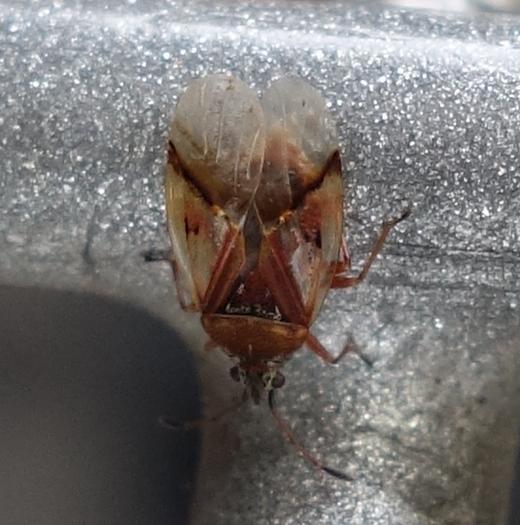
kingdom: Animalia
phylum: Arthropoda
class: Insecta
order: Hemiptera
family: Lygaeidae
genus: Kleidocerys
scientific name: Kleidocerys resedae
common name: Birch catkin bug
